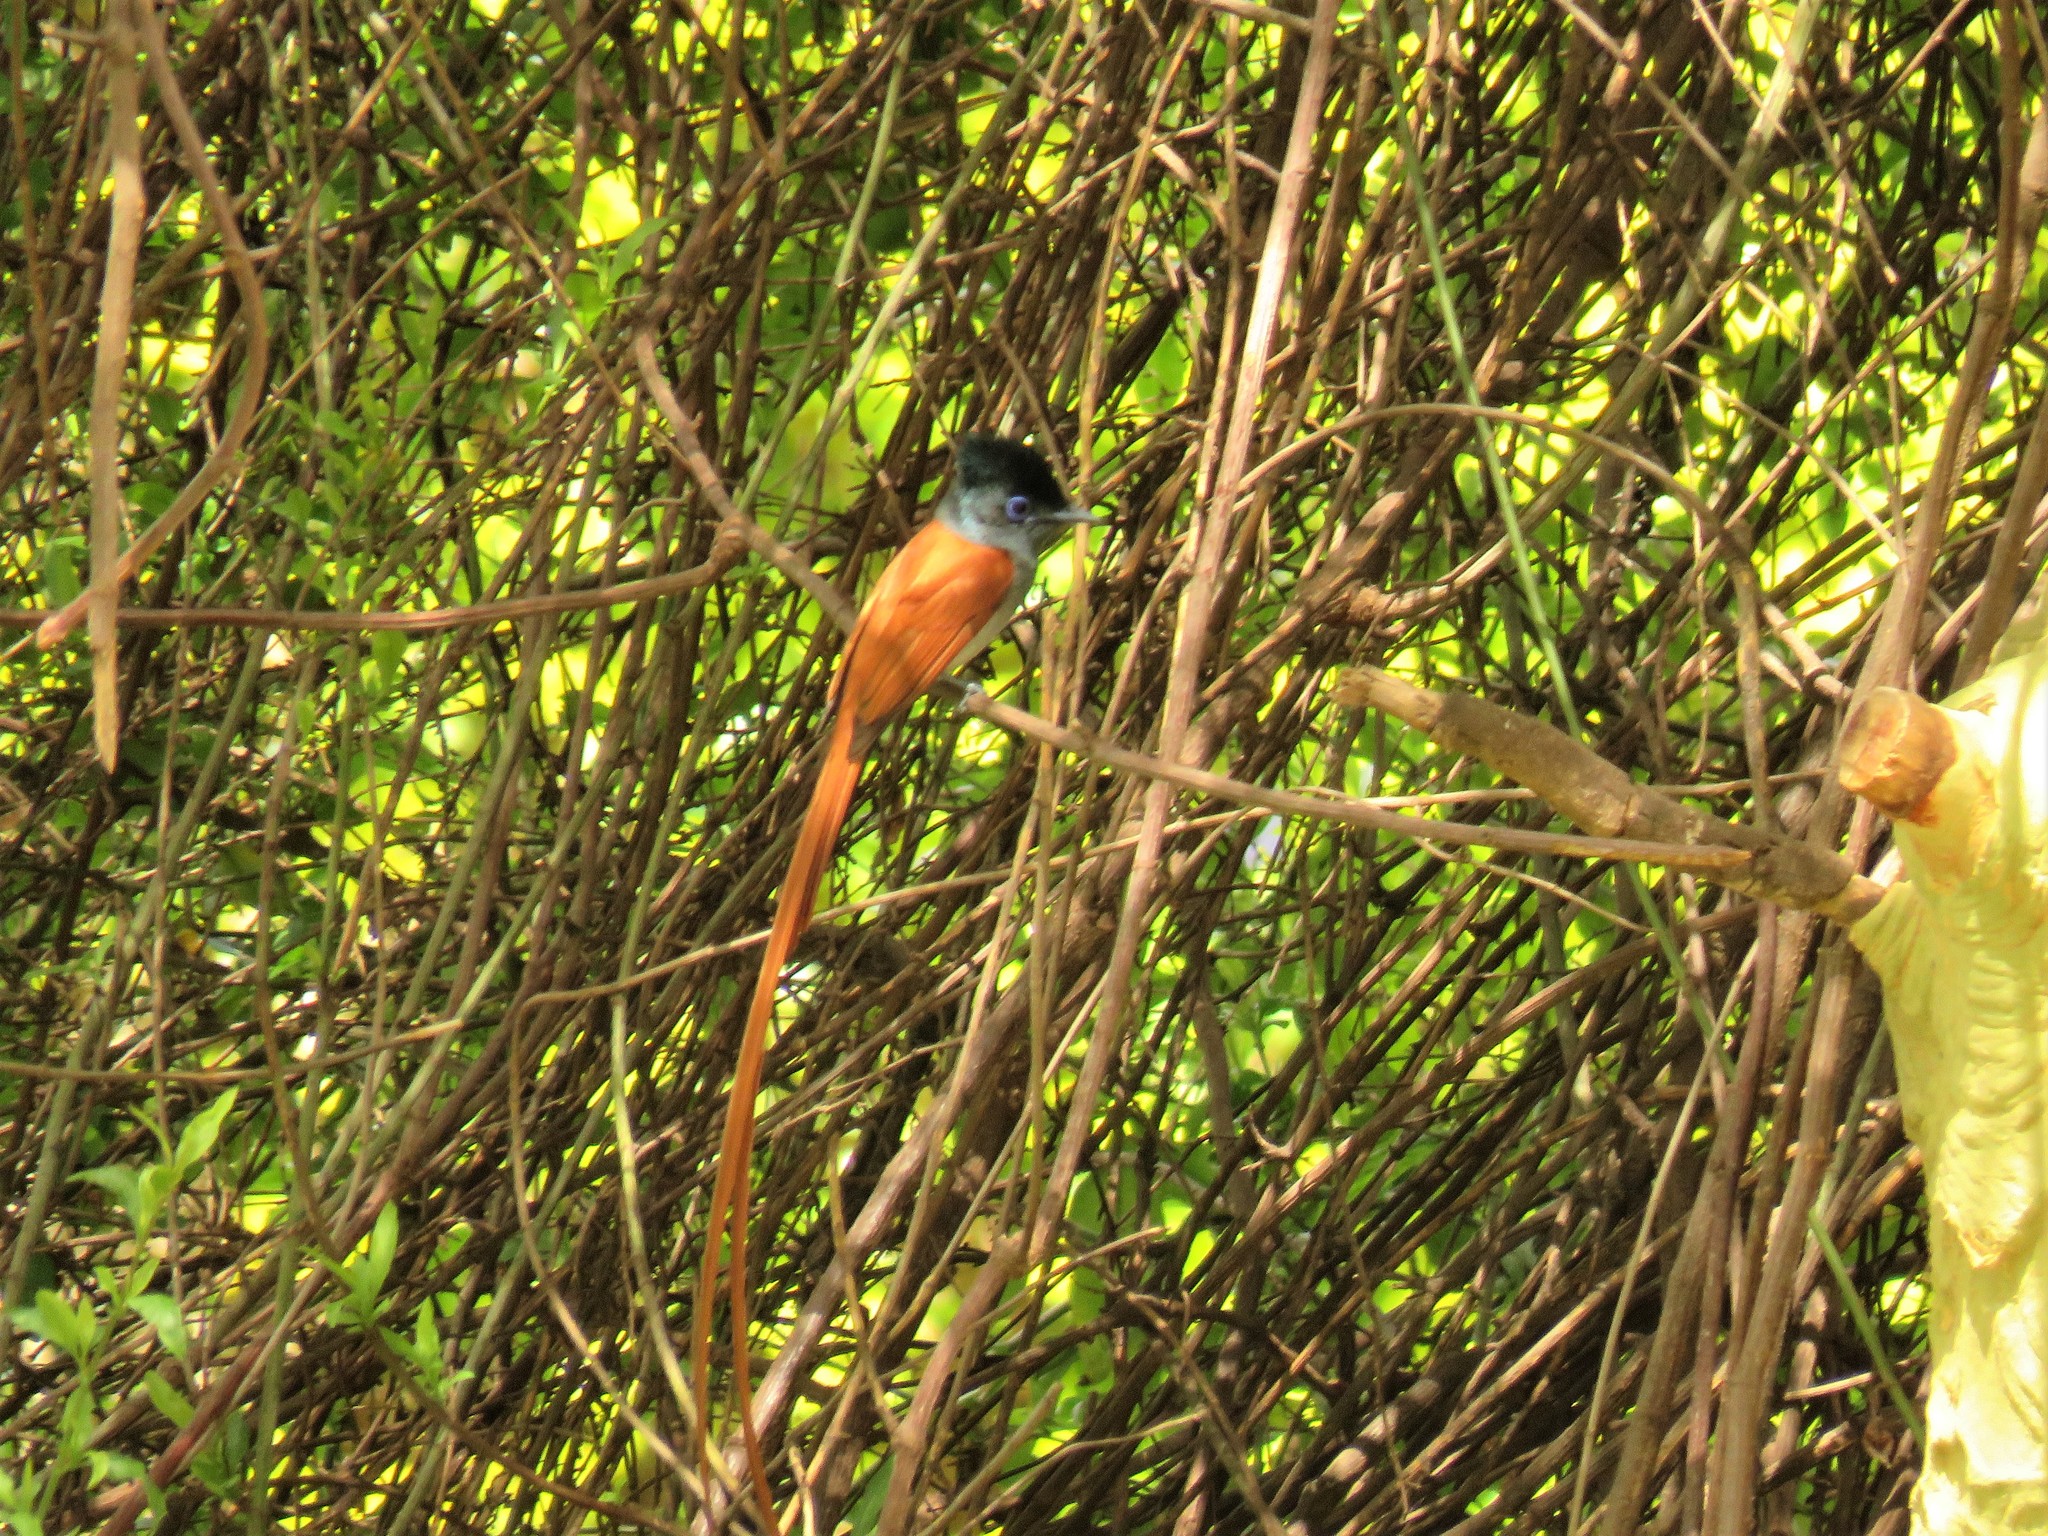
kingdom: Animalia
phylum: Chordata
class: Aves
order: Passeriformes
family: Monarchidae
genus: Terpsiphone
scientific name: Terpsiphone viridis
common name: African paradise flycatcher
